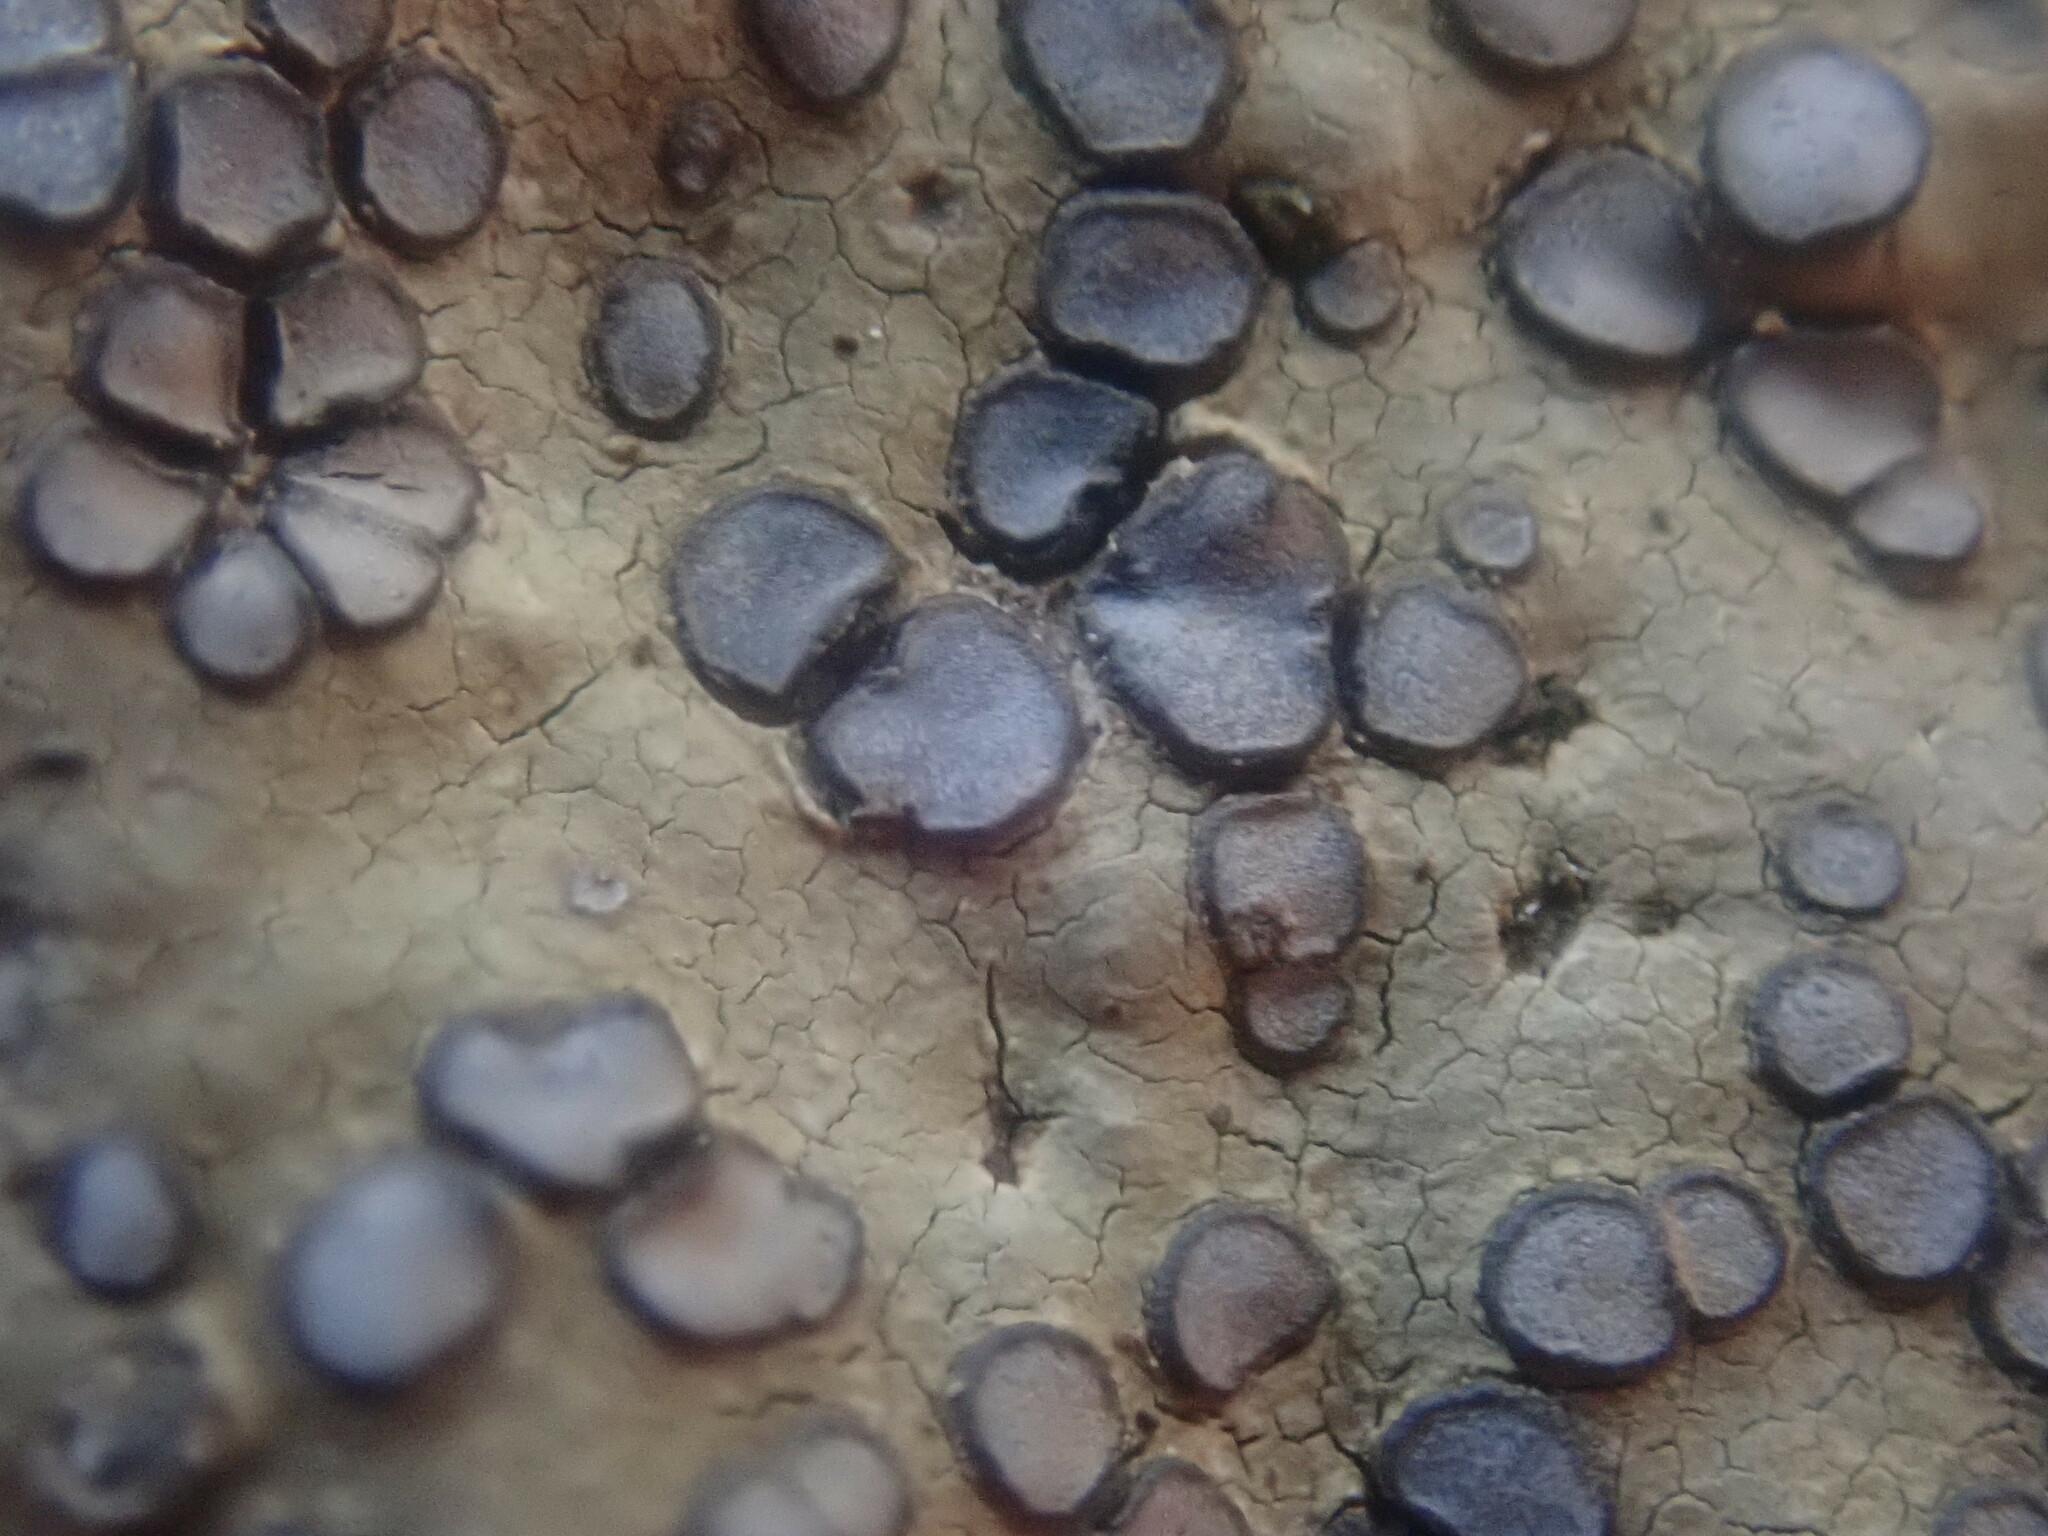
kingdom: Fungi
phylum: Ascomycota
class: Lecanoromycetes
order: Lecideales
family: Lecideaceae
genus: Porpidia
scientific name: Porpidia albocaerulescens
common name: Smokey-eyed boulder lichen
